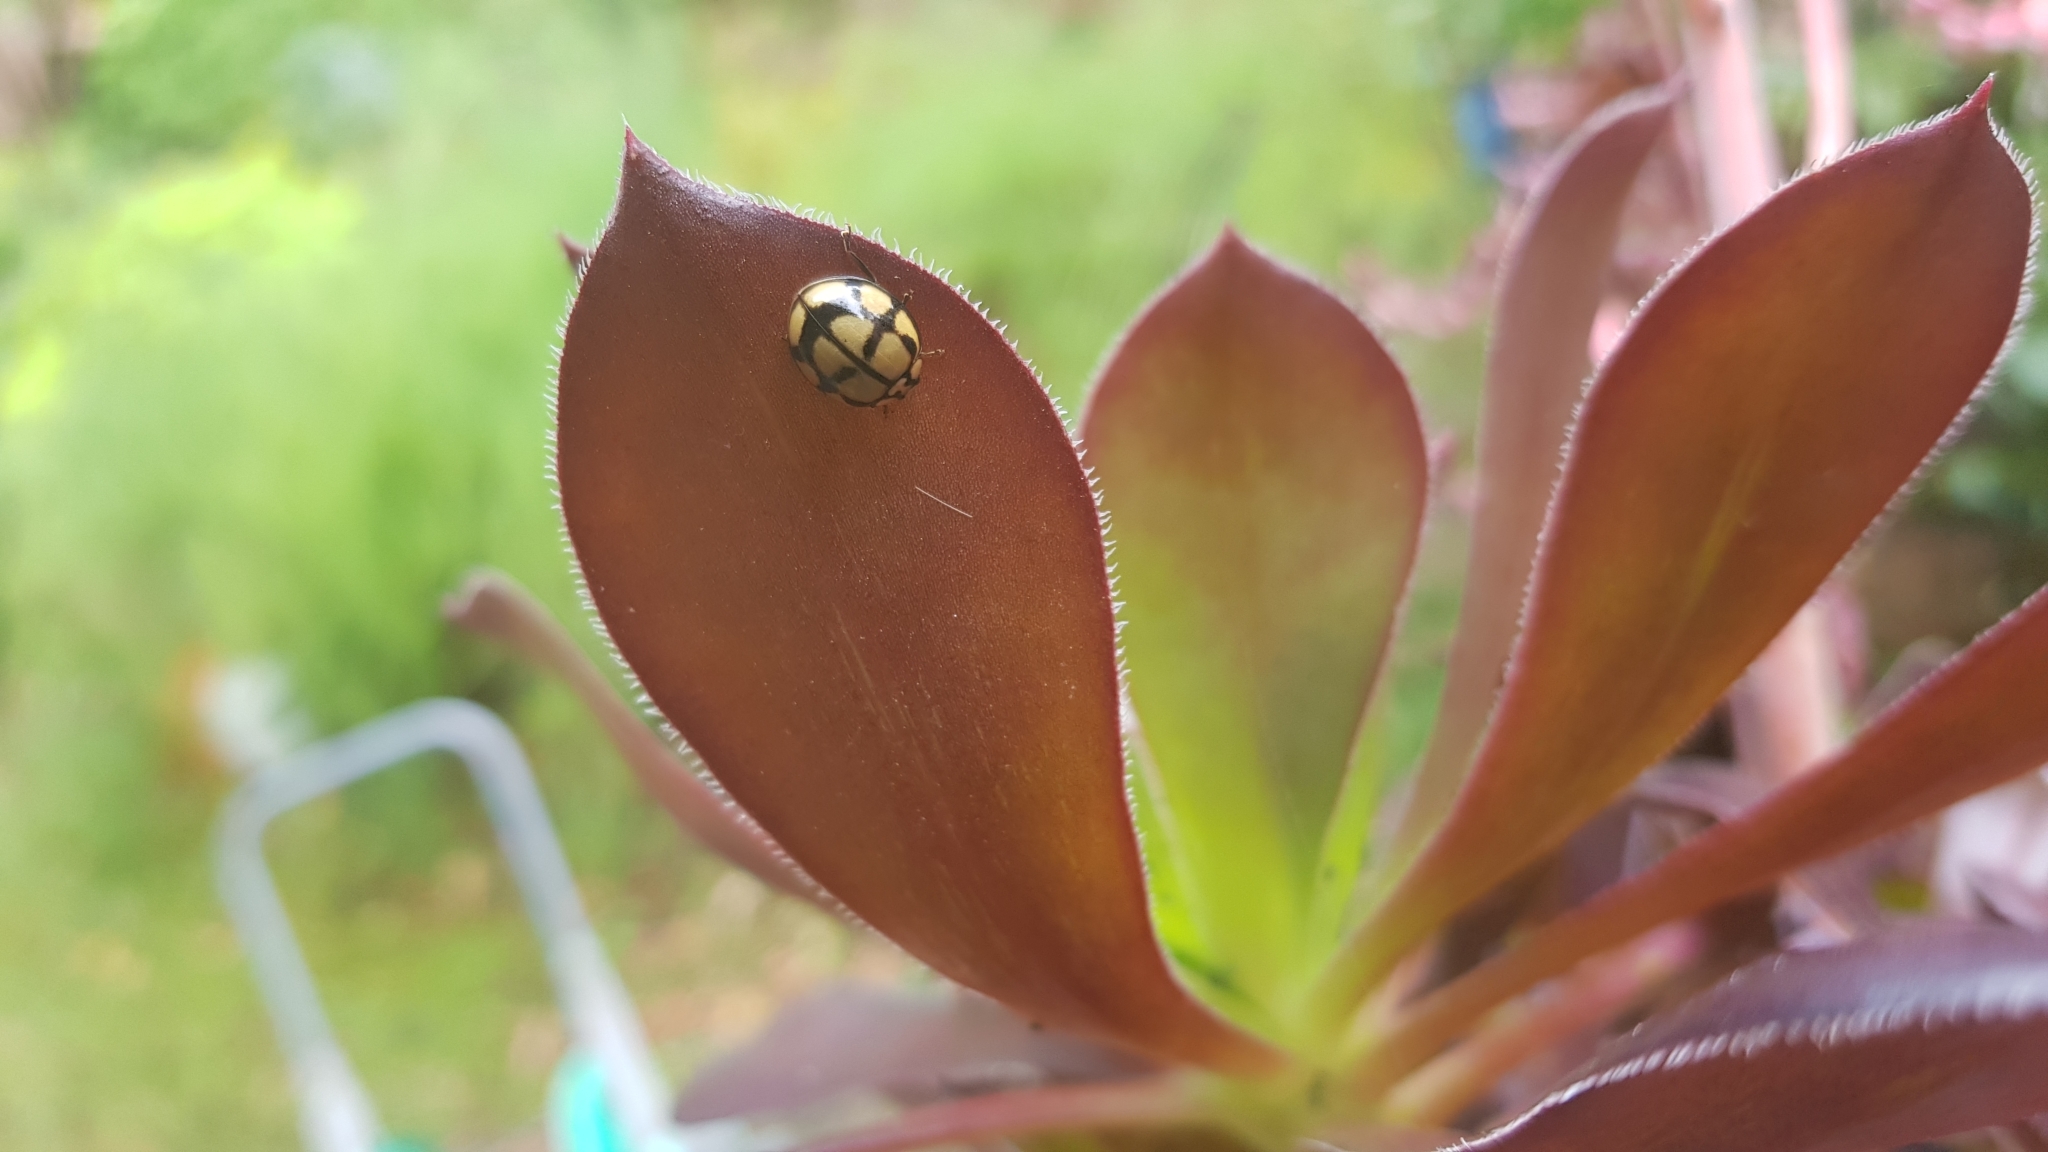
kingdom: Animalia
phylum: Arthropoda
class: Insecta
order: Coleoptera
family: Coccinellidae
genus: Harmonia
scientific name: Harmonia
